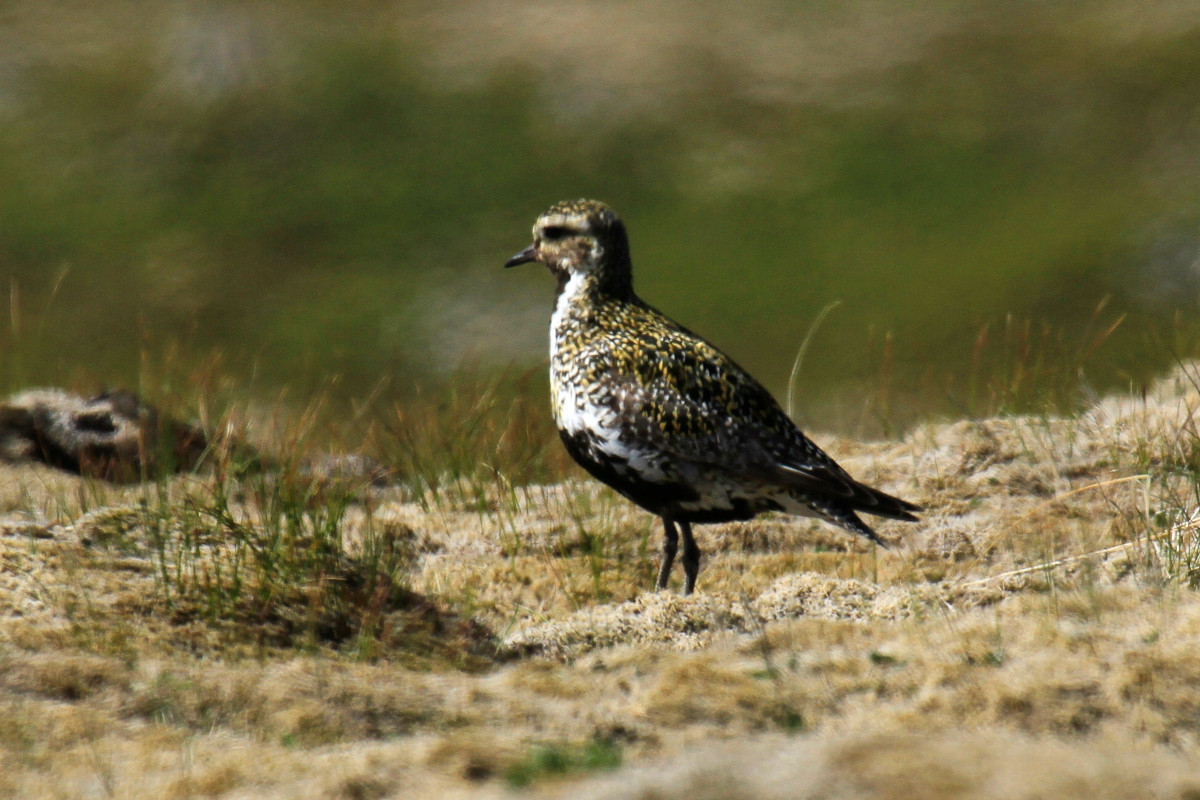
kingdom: Animalia
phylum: Chordata
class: Aves
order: Charadriiformes
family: Charadriidae
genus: Pluvialis
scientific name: Pluvialis apricaria
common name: European golden plover
